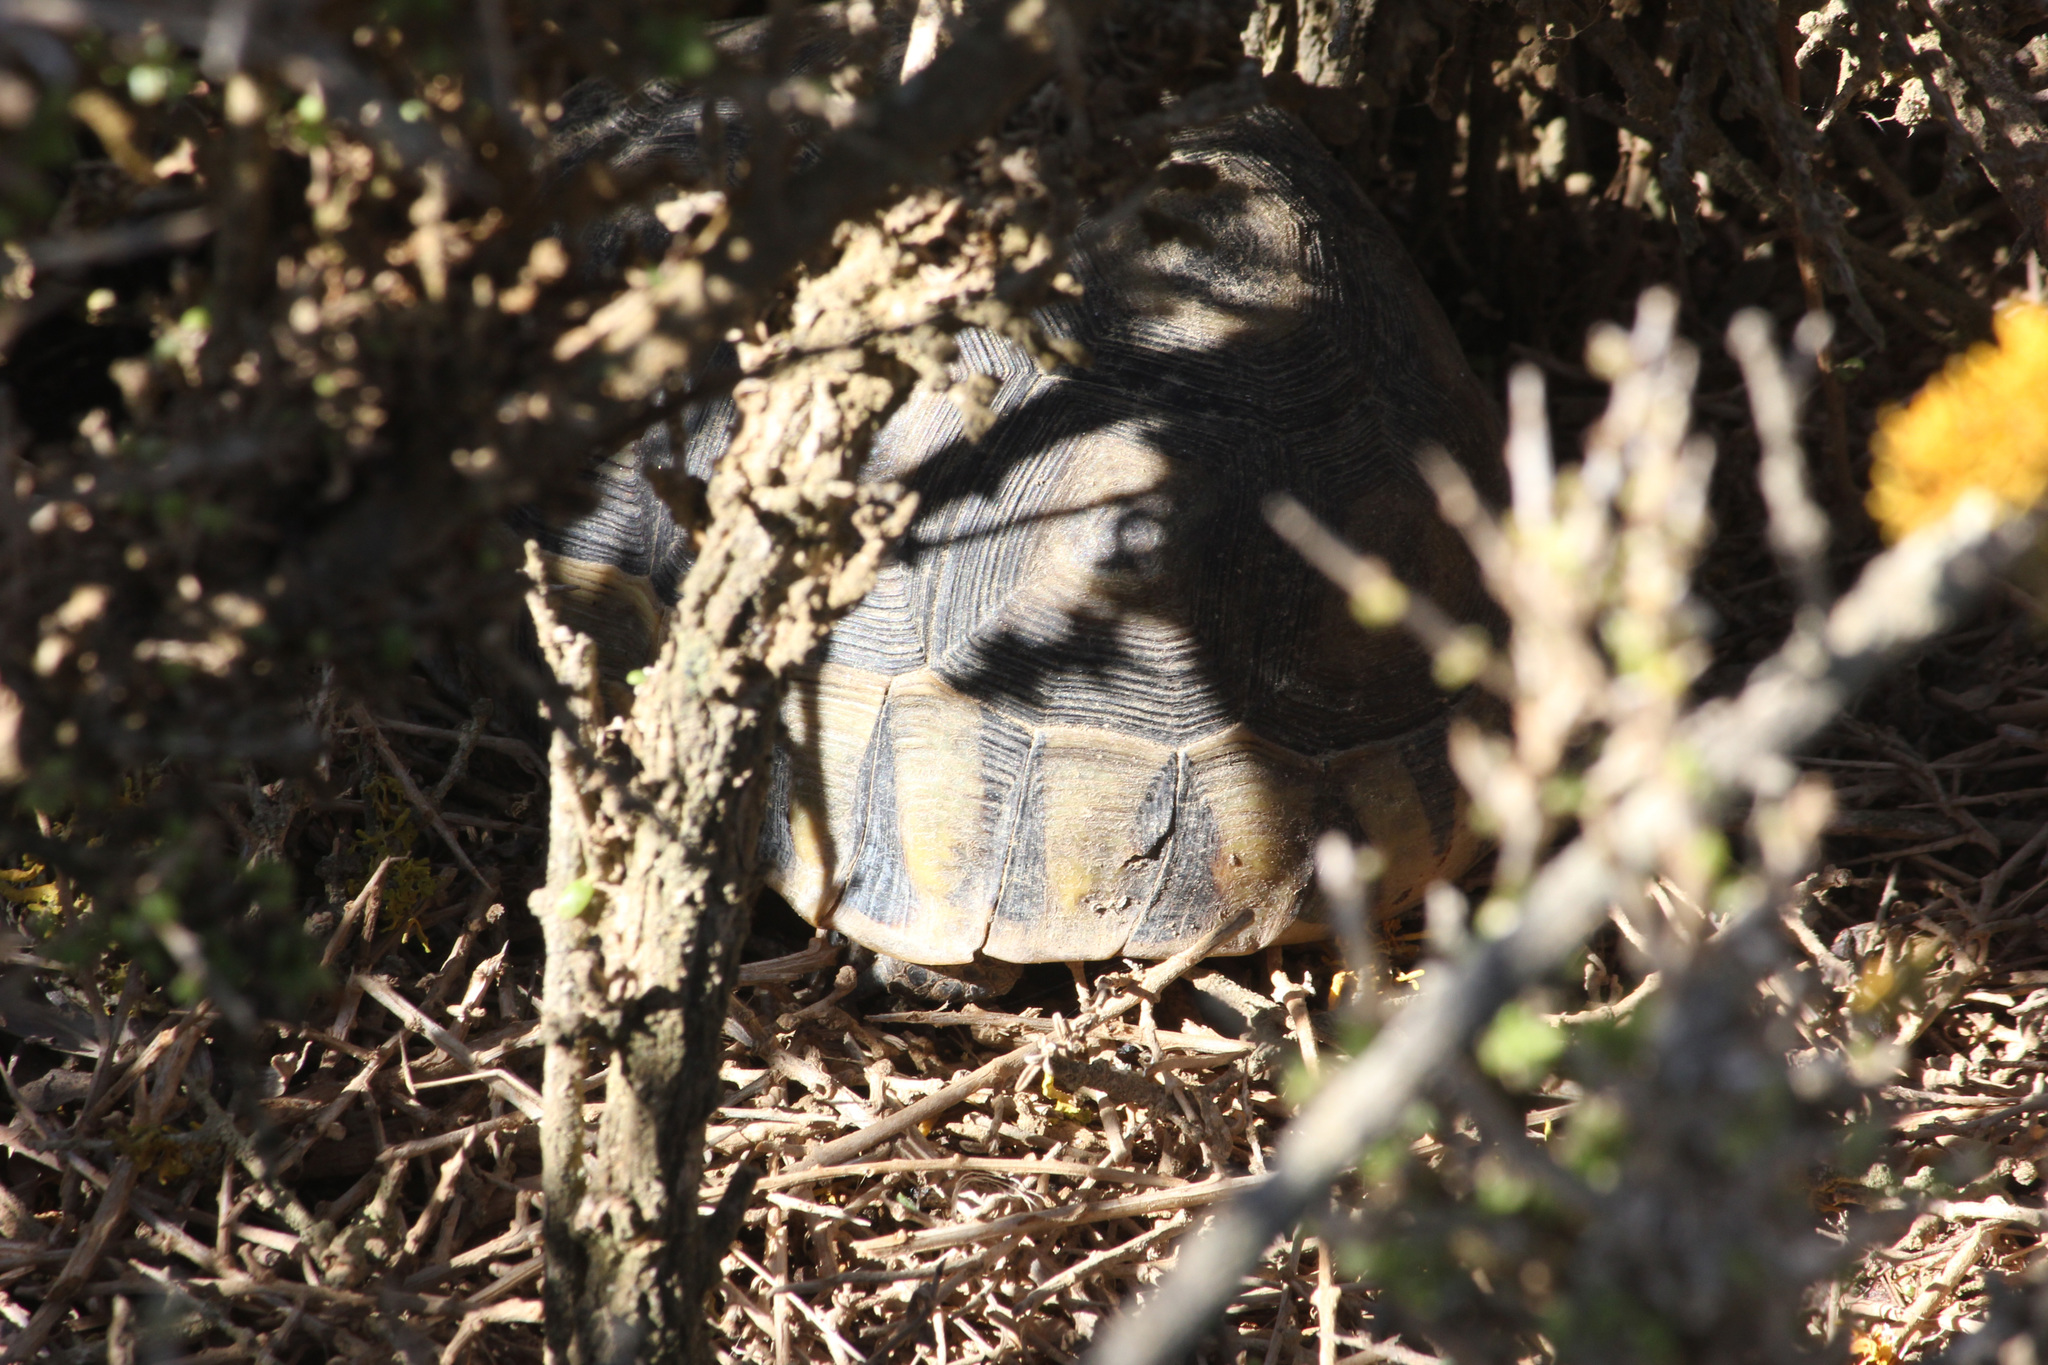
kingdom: Animalia
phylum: Chordata
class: Testudines
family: Testudinidae
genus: Chersina
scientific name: Chersina angulata
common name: South african bowsprit tortoise
